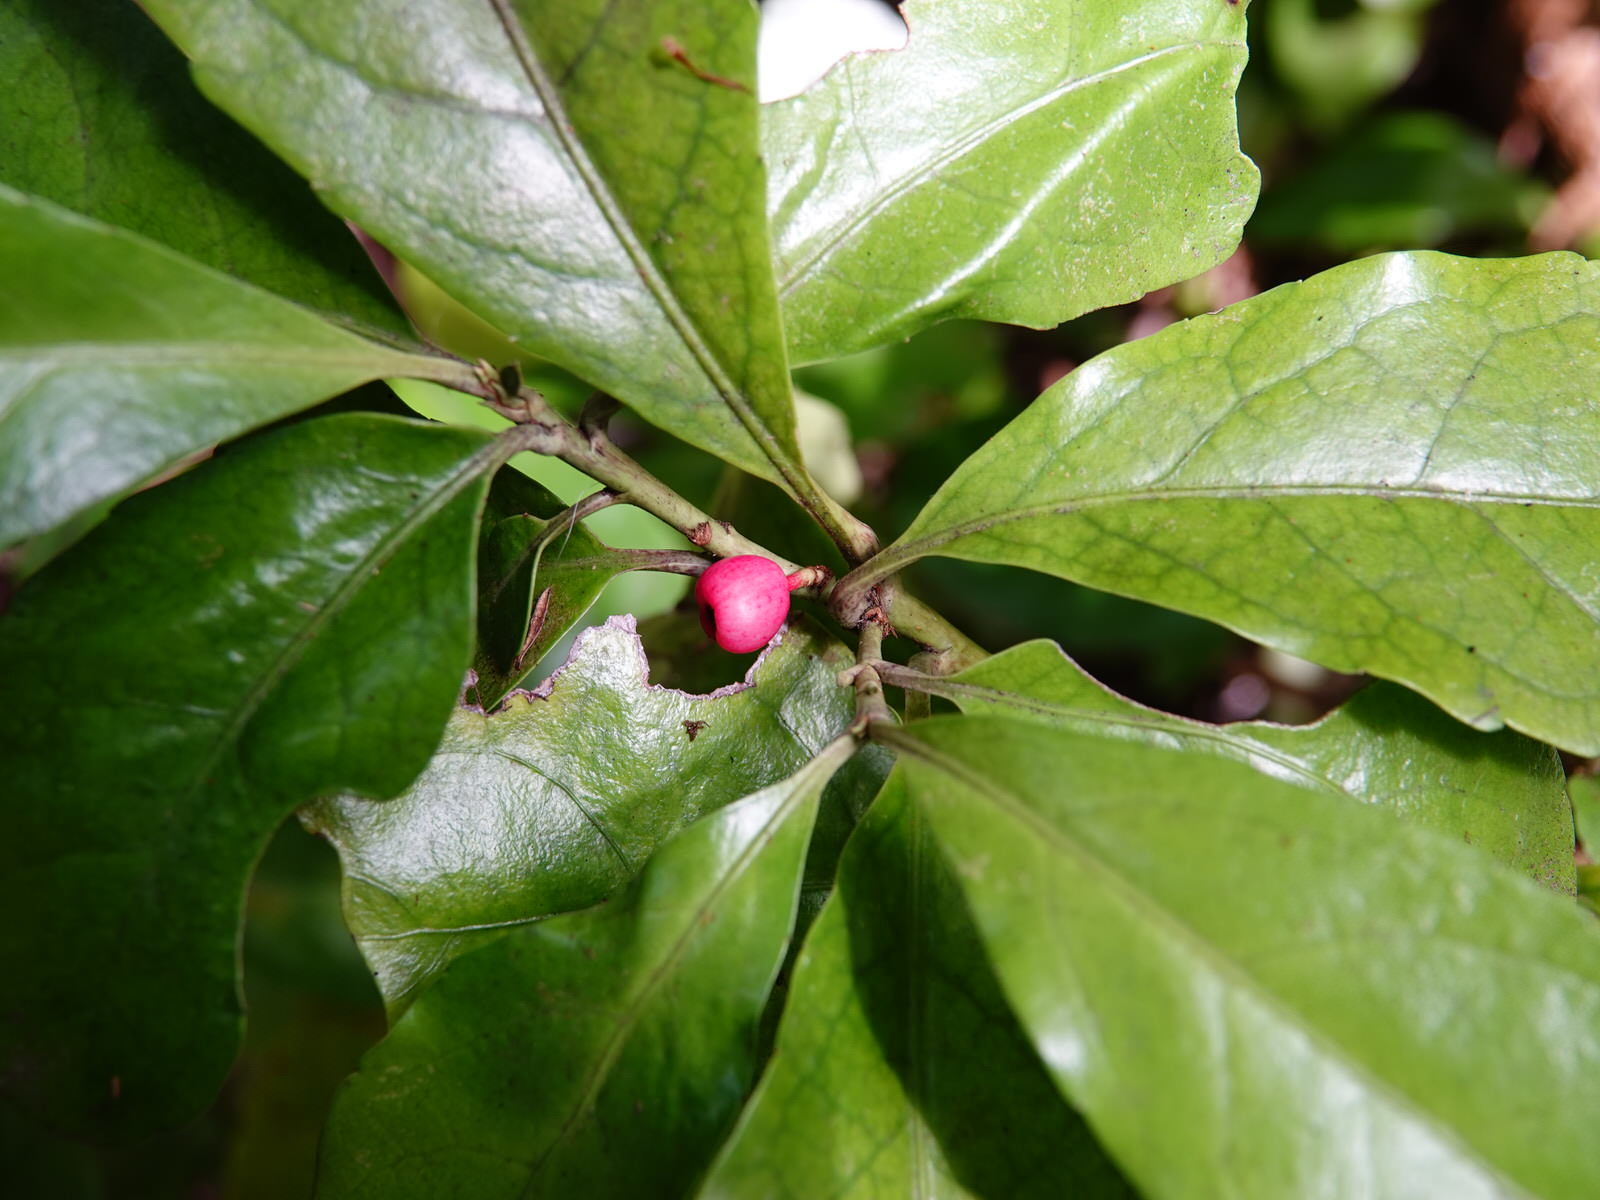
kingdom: Plantae
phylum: Tracheophyta
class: Magnoliopsida
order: Asterales
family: Alseuosmiaceae
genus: Alseuosmia
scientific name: Alseuosmia macrophylla
